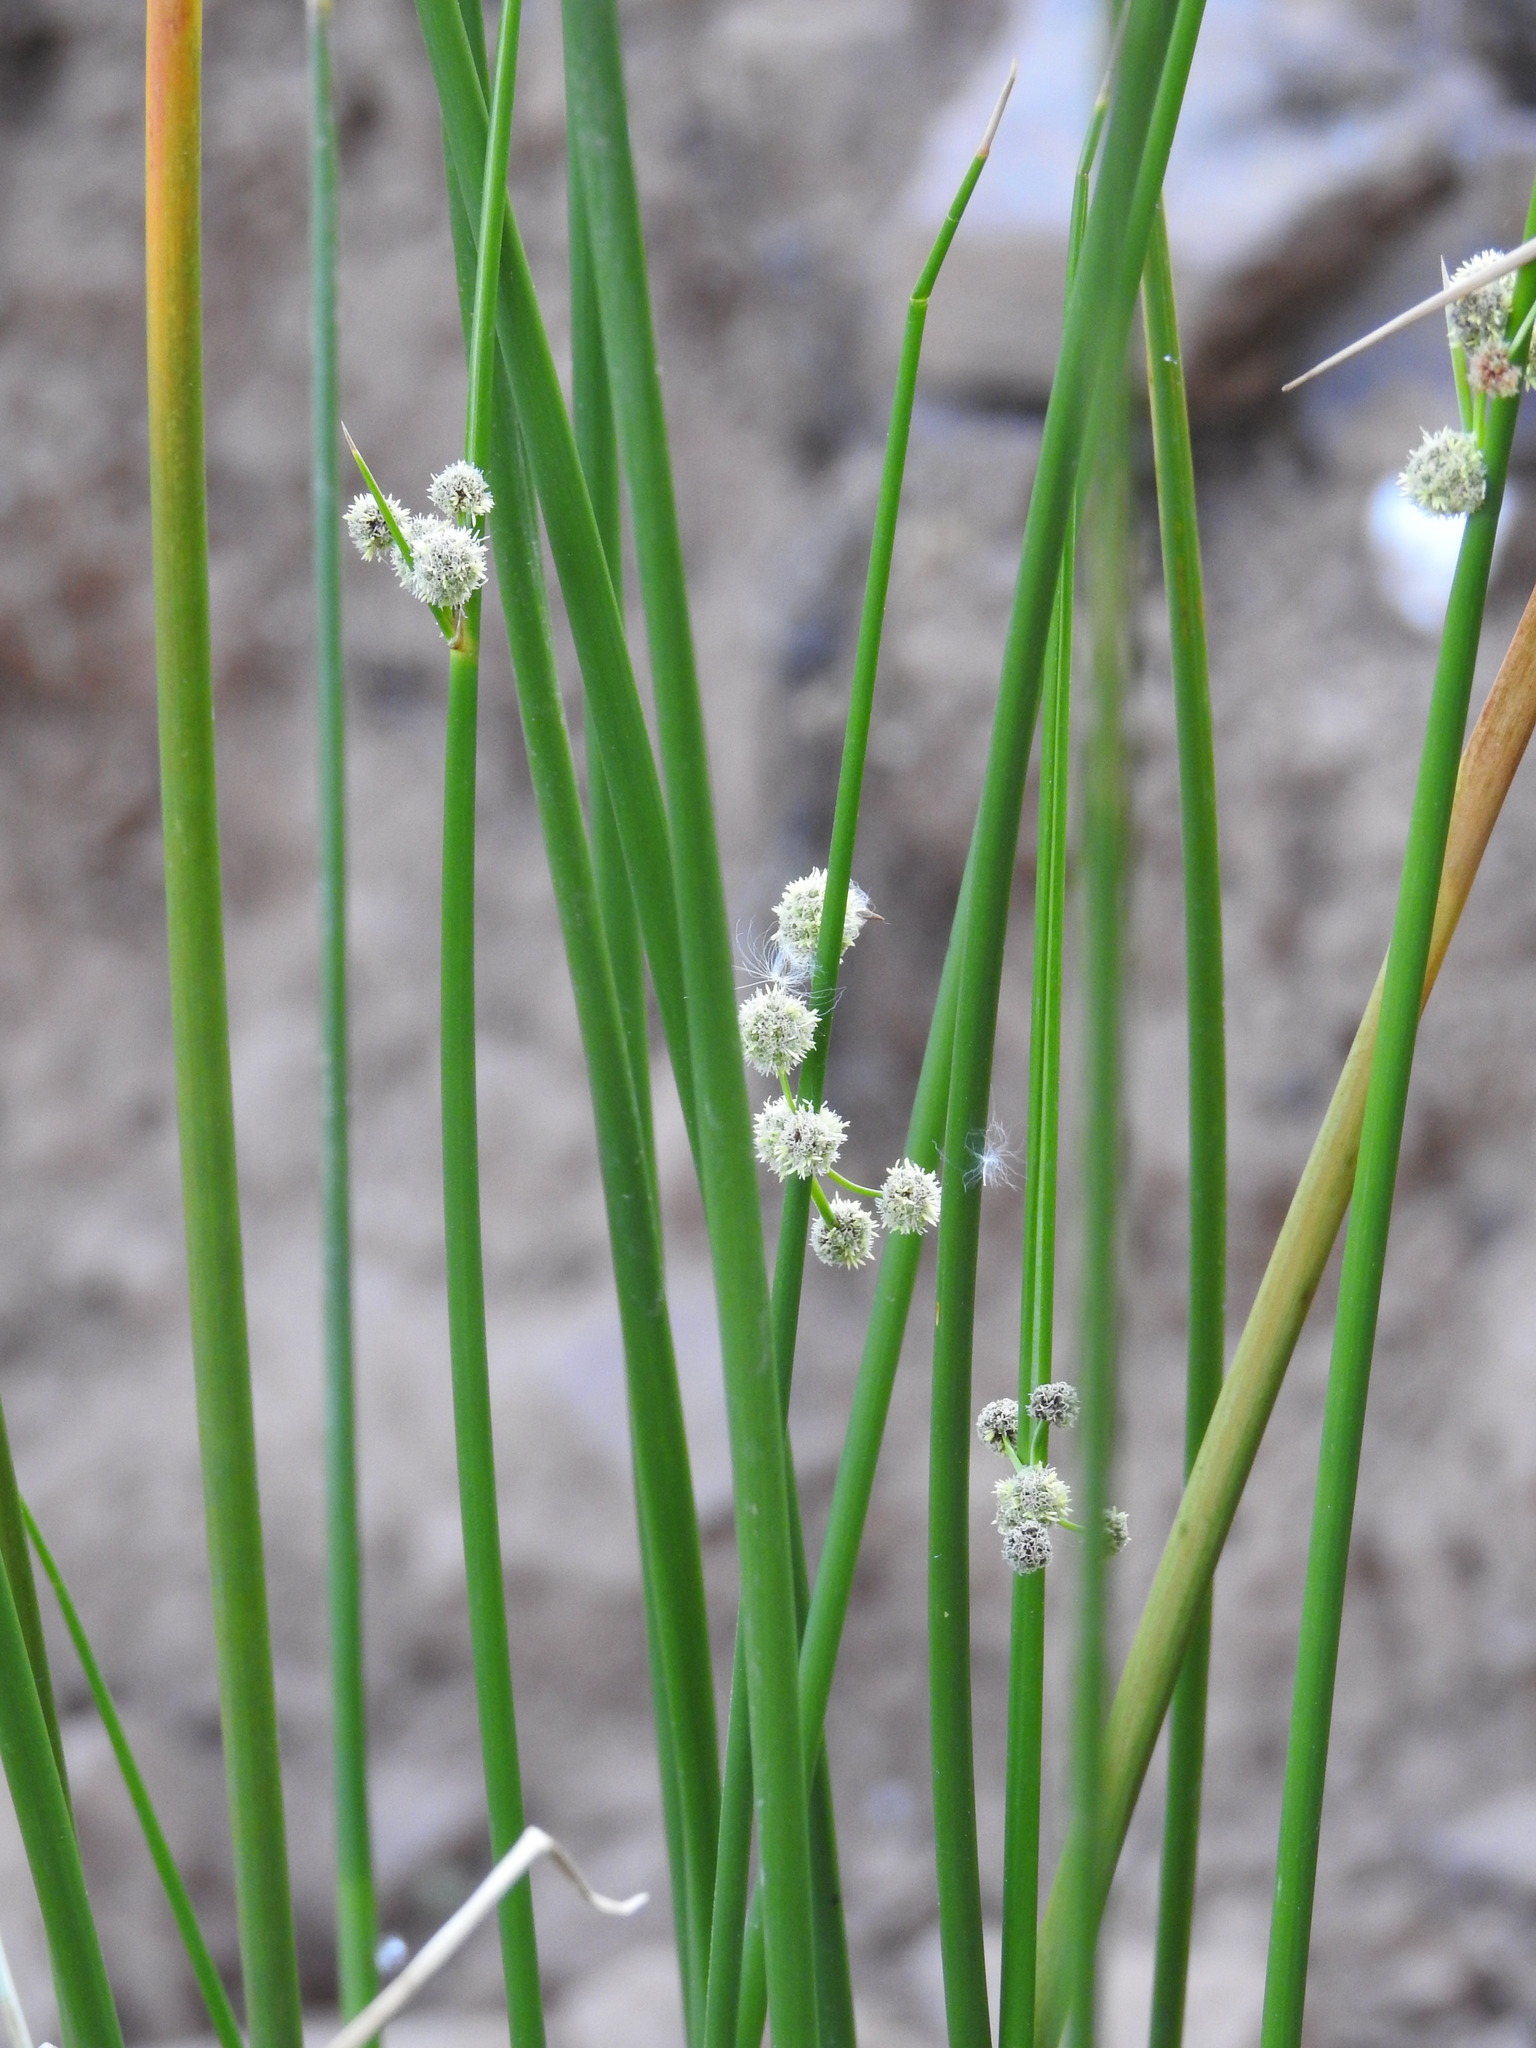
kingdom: Plantae
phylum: Tracheophyta
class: Liliopsida
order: Poales
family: Cyperaceae
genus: Scirpoides
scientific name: Scirpoides holoschoenus
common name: Round-headed club-rush
